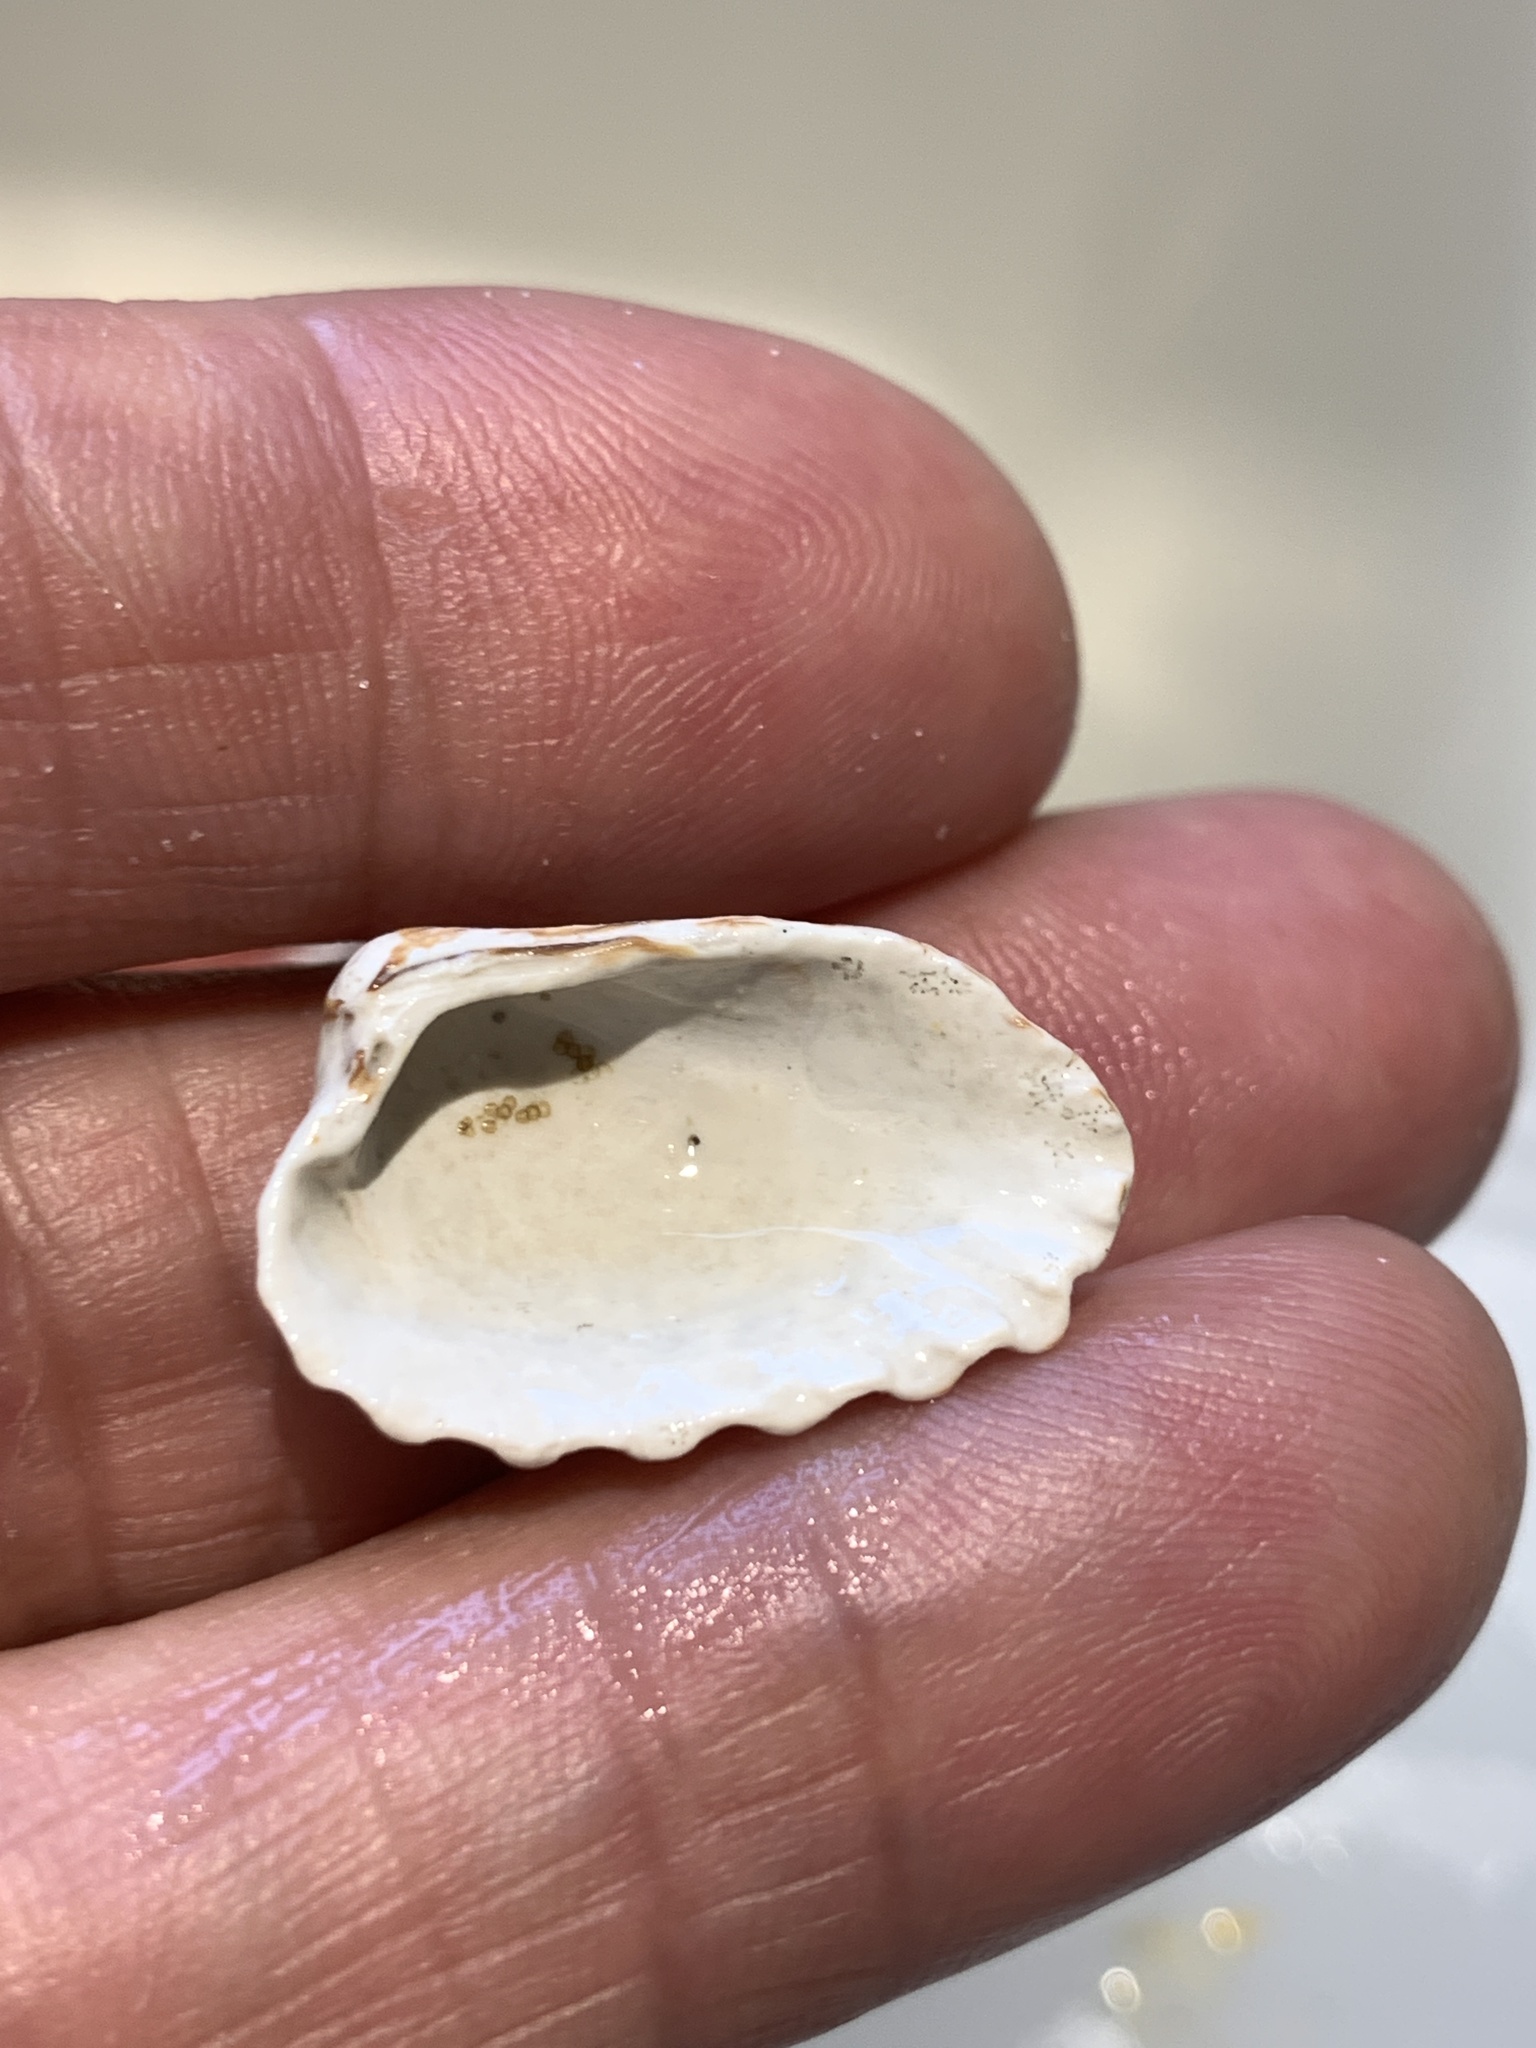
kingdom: Animalia
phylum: Mollusca
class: Bivalvia
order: Carditida
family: Carditidae
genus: Cardites
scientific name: Cardites floridanus
